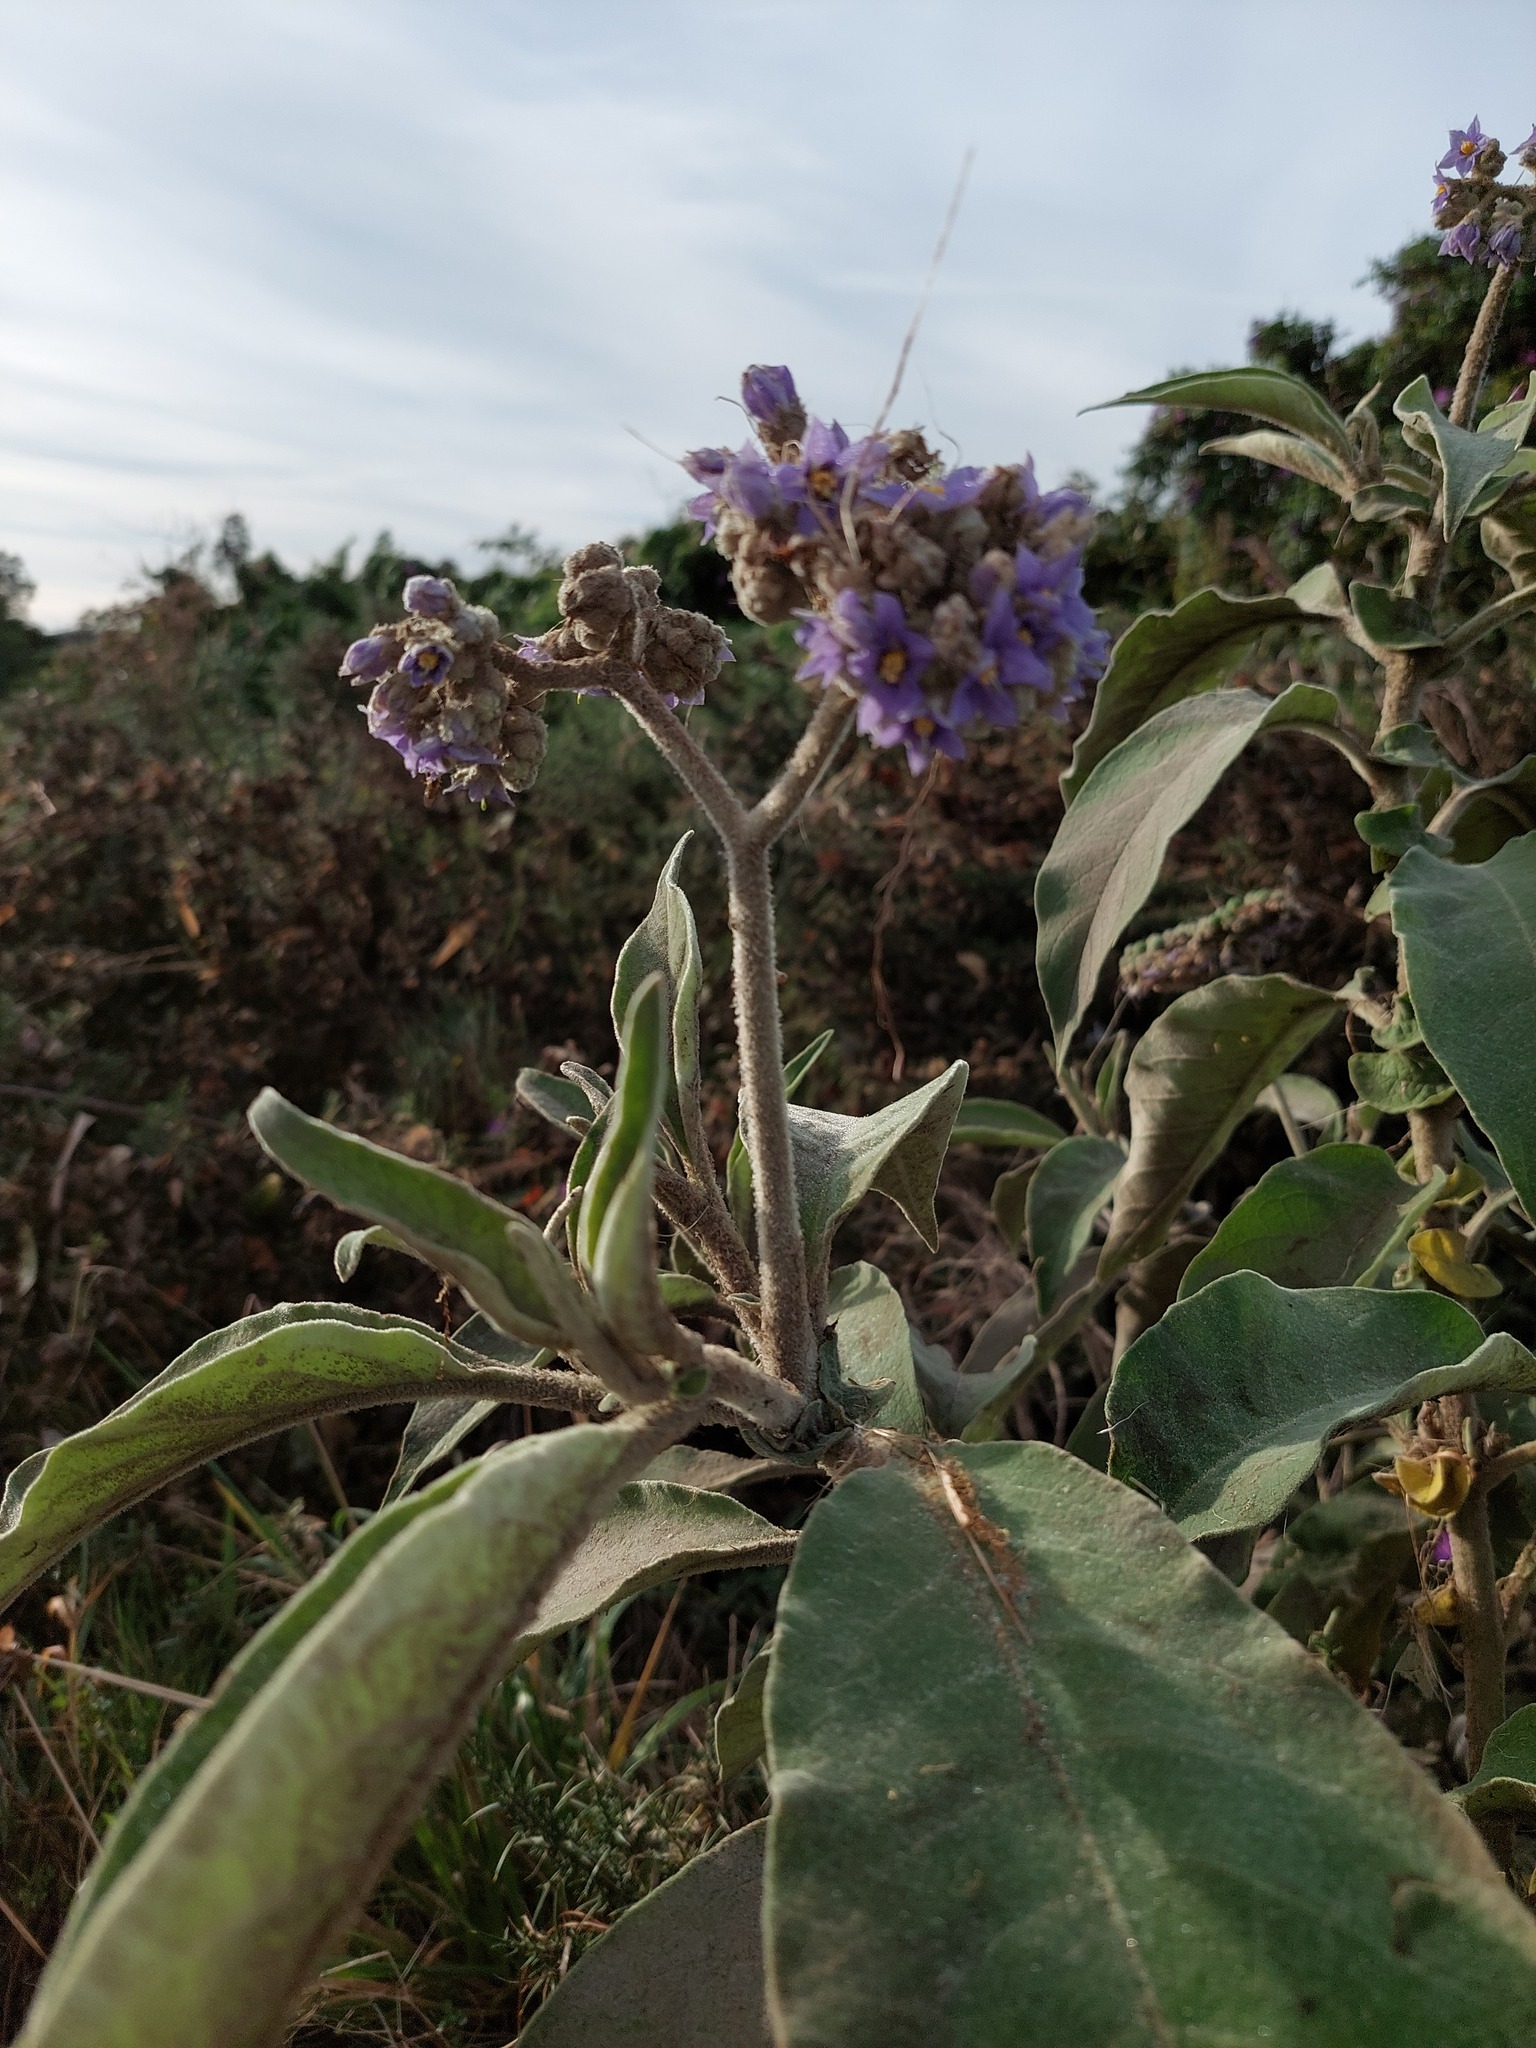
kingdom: Plantae
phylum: Tracheophyta
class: Magnoliopsida
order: Solanales
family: Solanaceae
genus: Solanum
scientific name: Solanum mauritianum
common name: Earleaf nightshade
